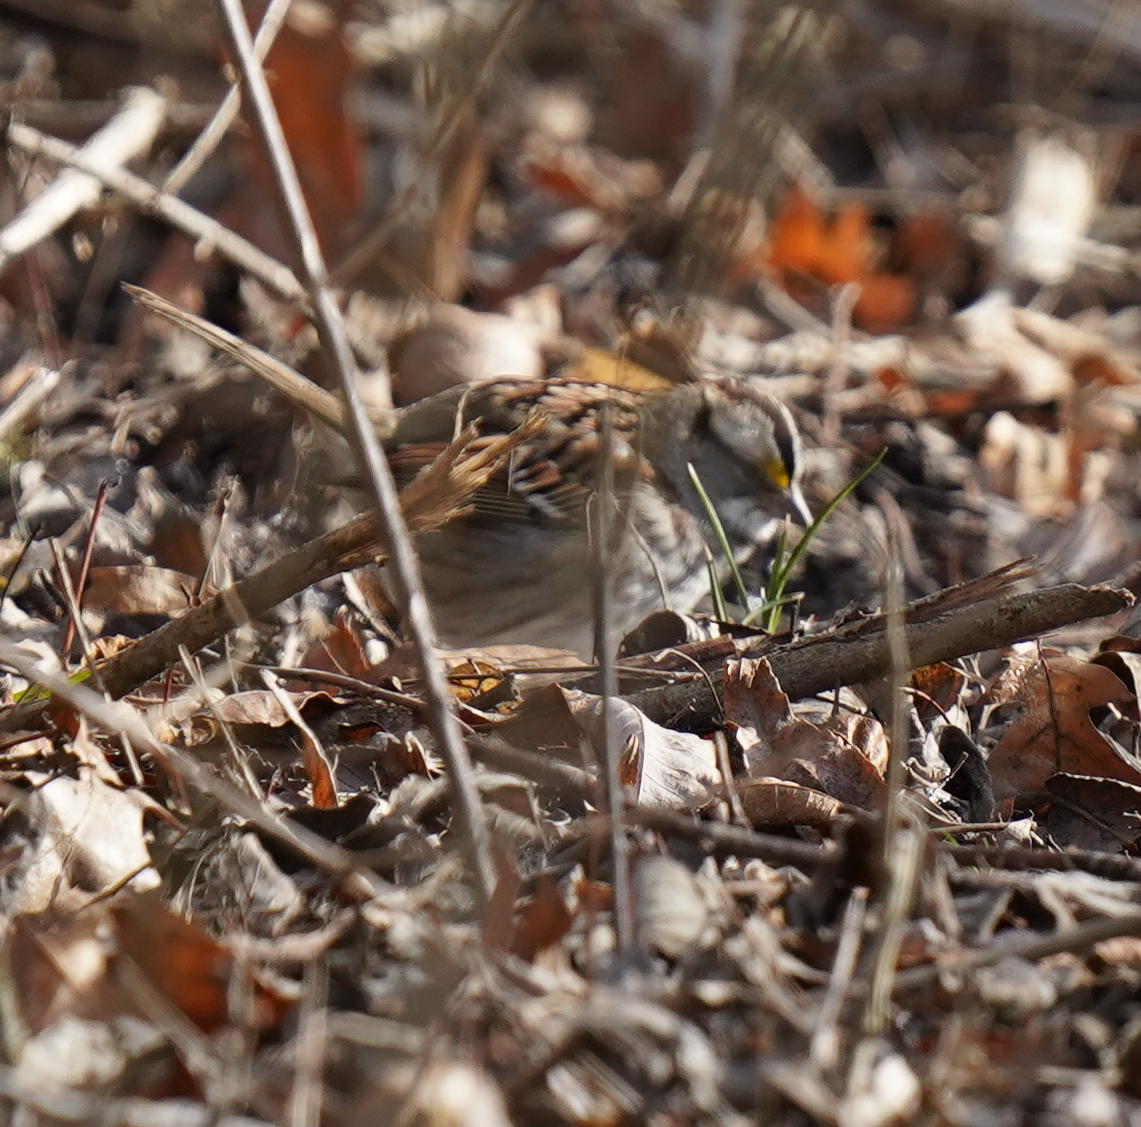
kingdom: Animalia
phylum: Chordata
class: Aves
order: Passeriformes
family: Passerellidae
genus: Zonotrichia
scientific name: Zonotrichia albicollis
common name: White-throated sparrow
